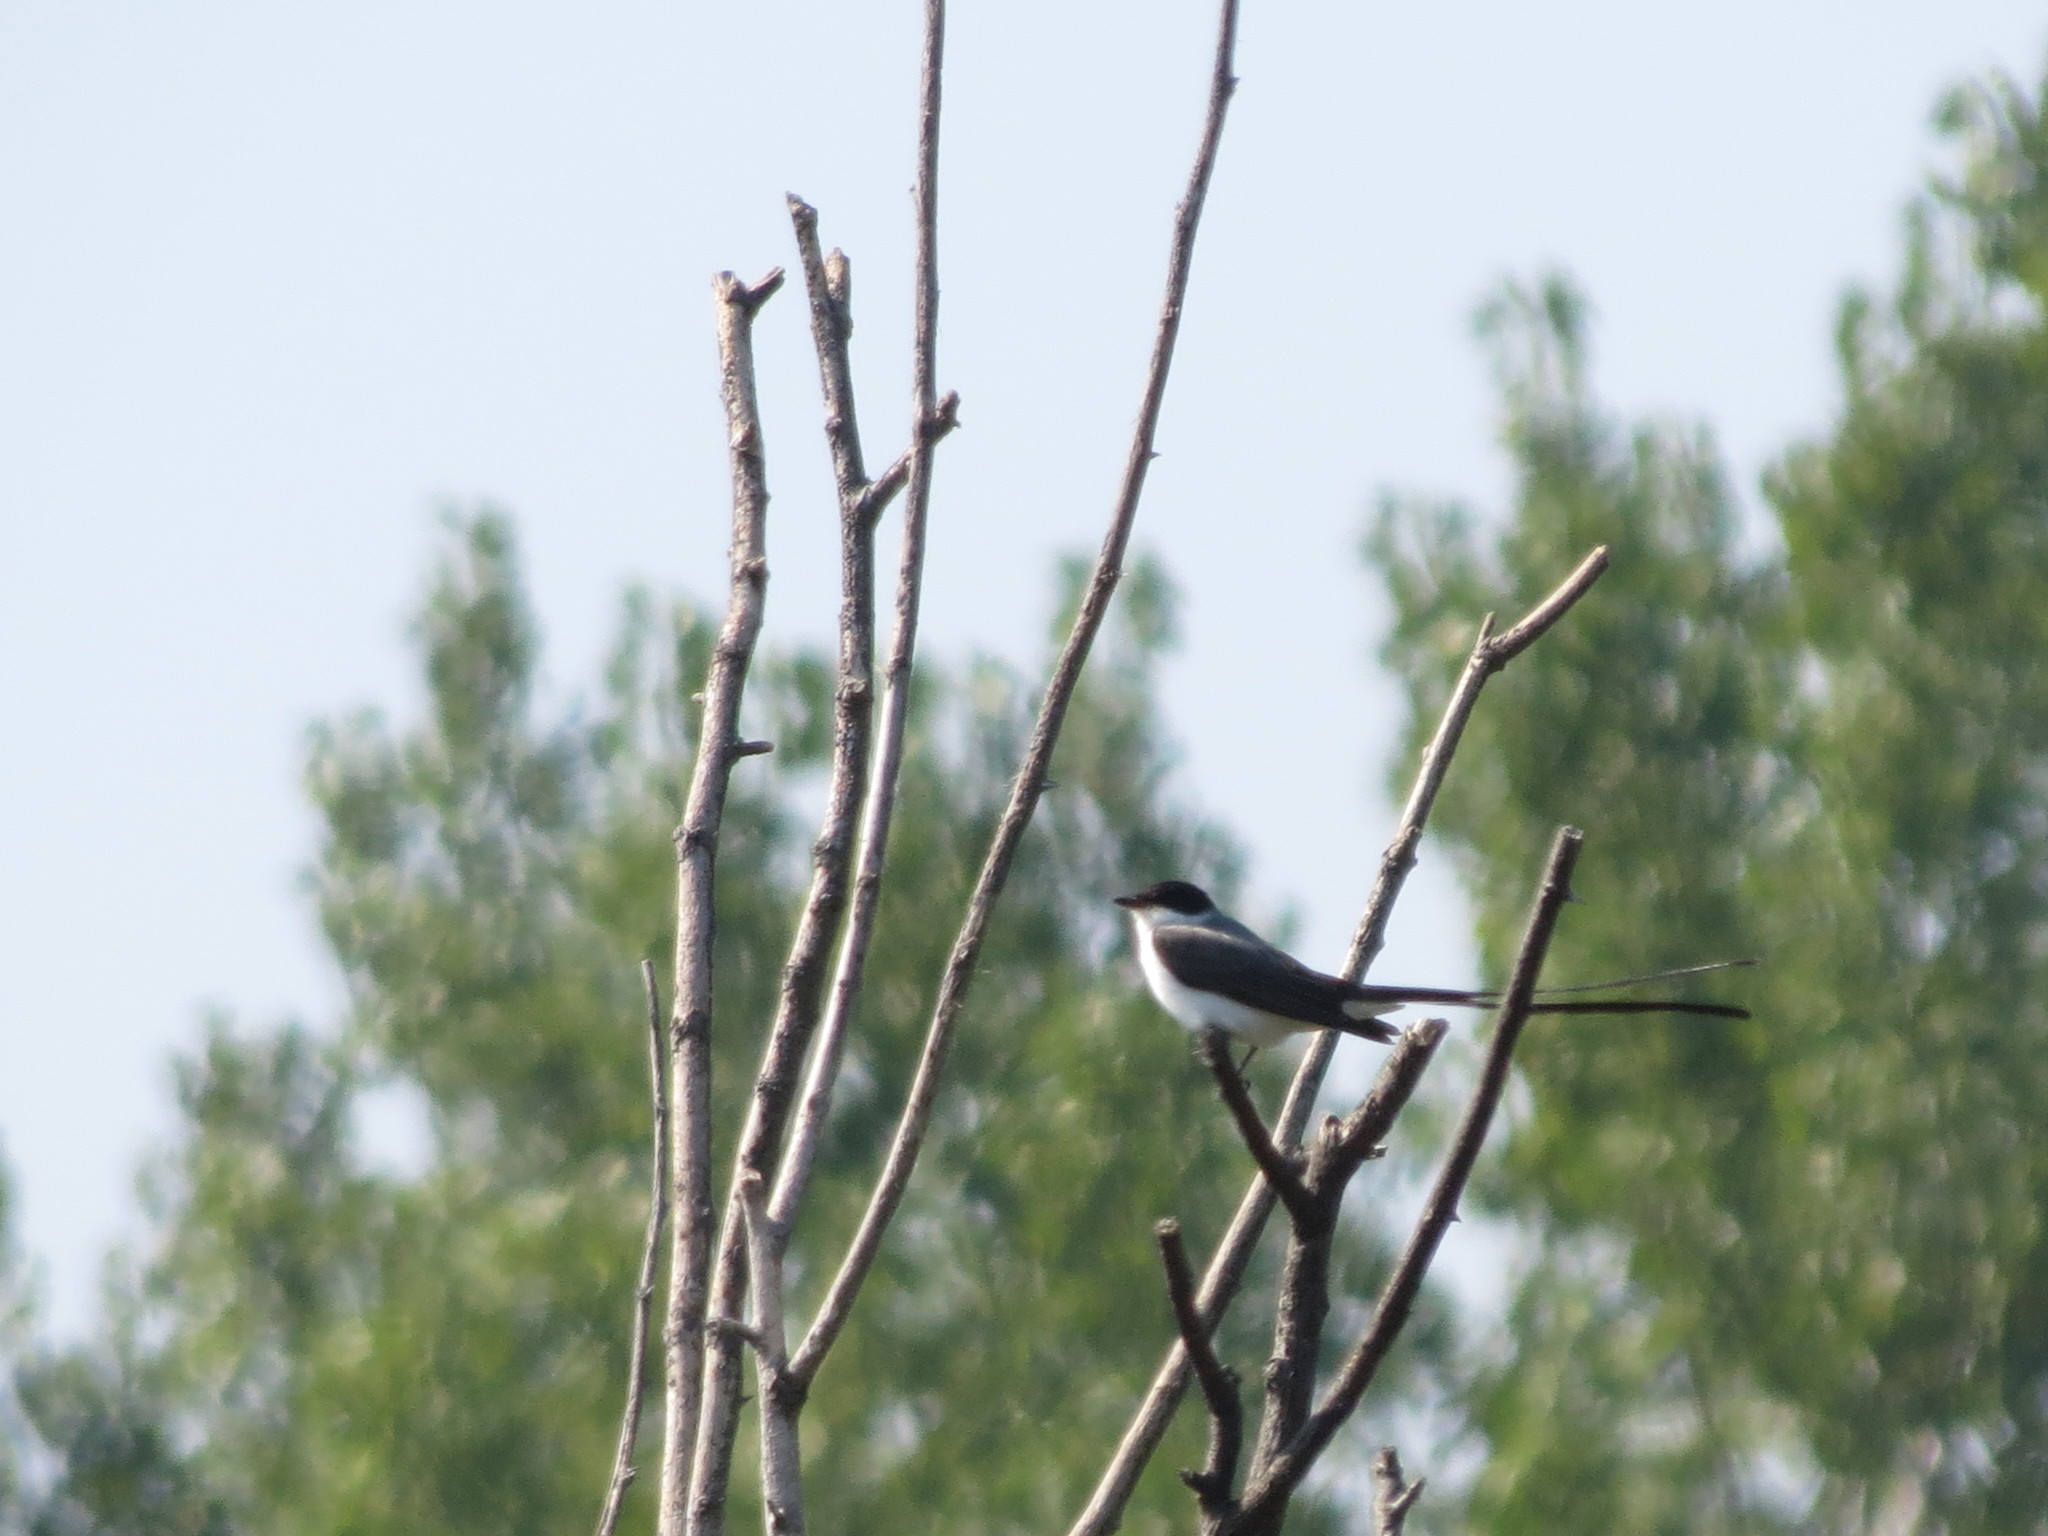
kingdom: Animalia
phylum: Chordata
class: Aves
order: Passeriformes
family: Tyrannidae
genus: Tyrannus
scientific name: Tyrannus savana
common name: Fork-tailed flycatcher
